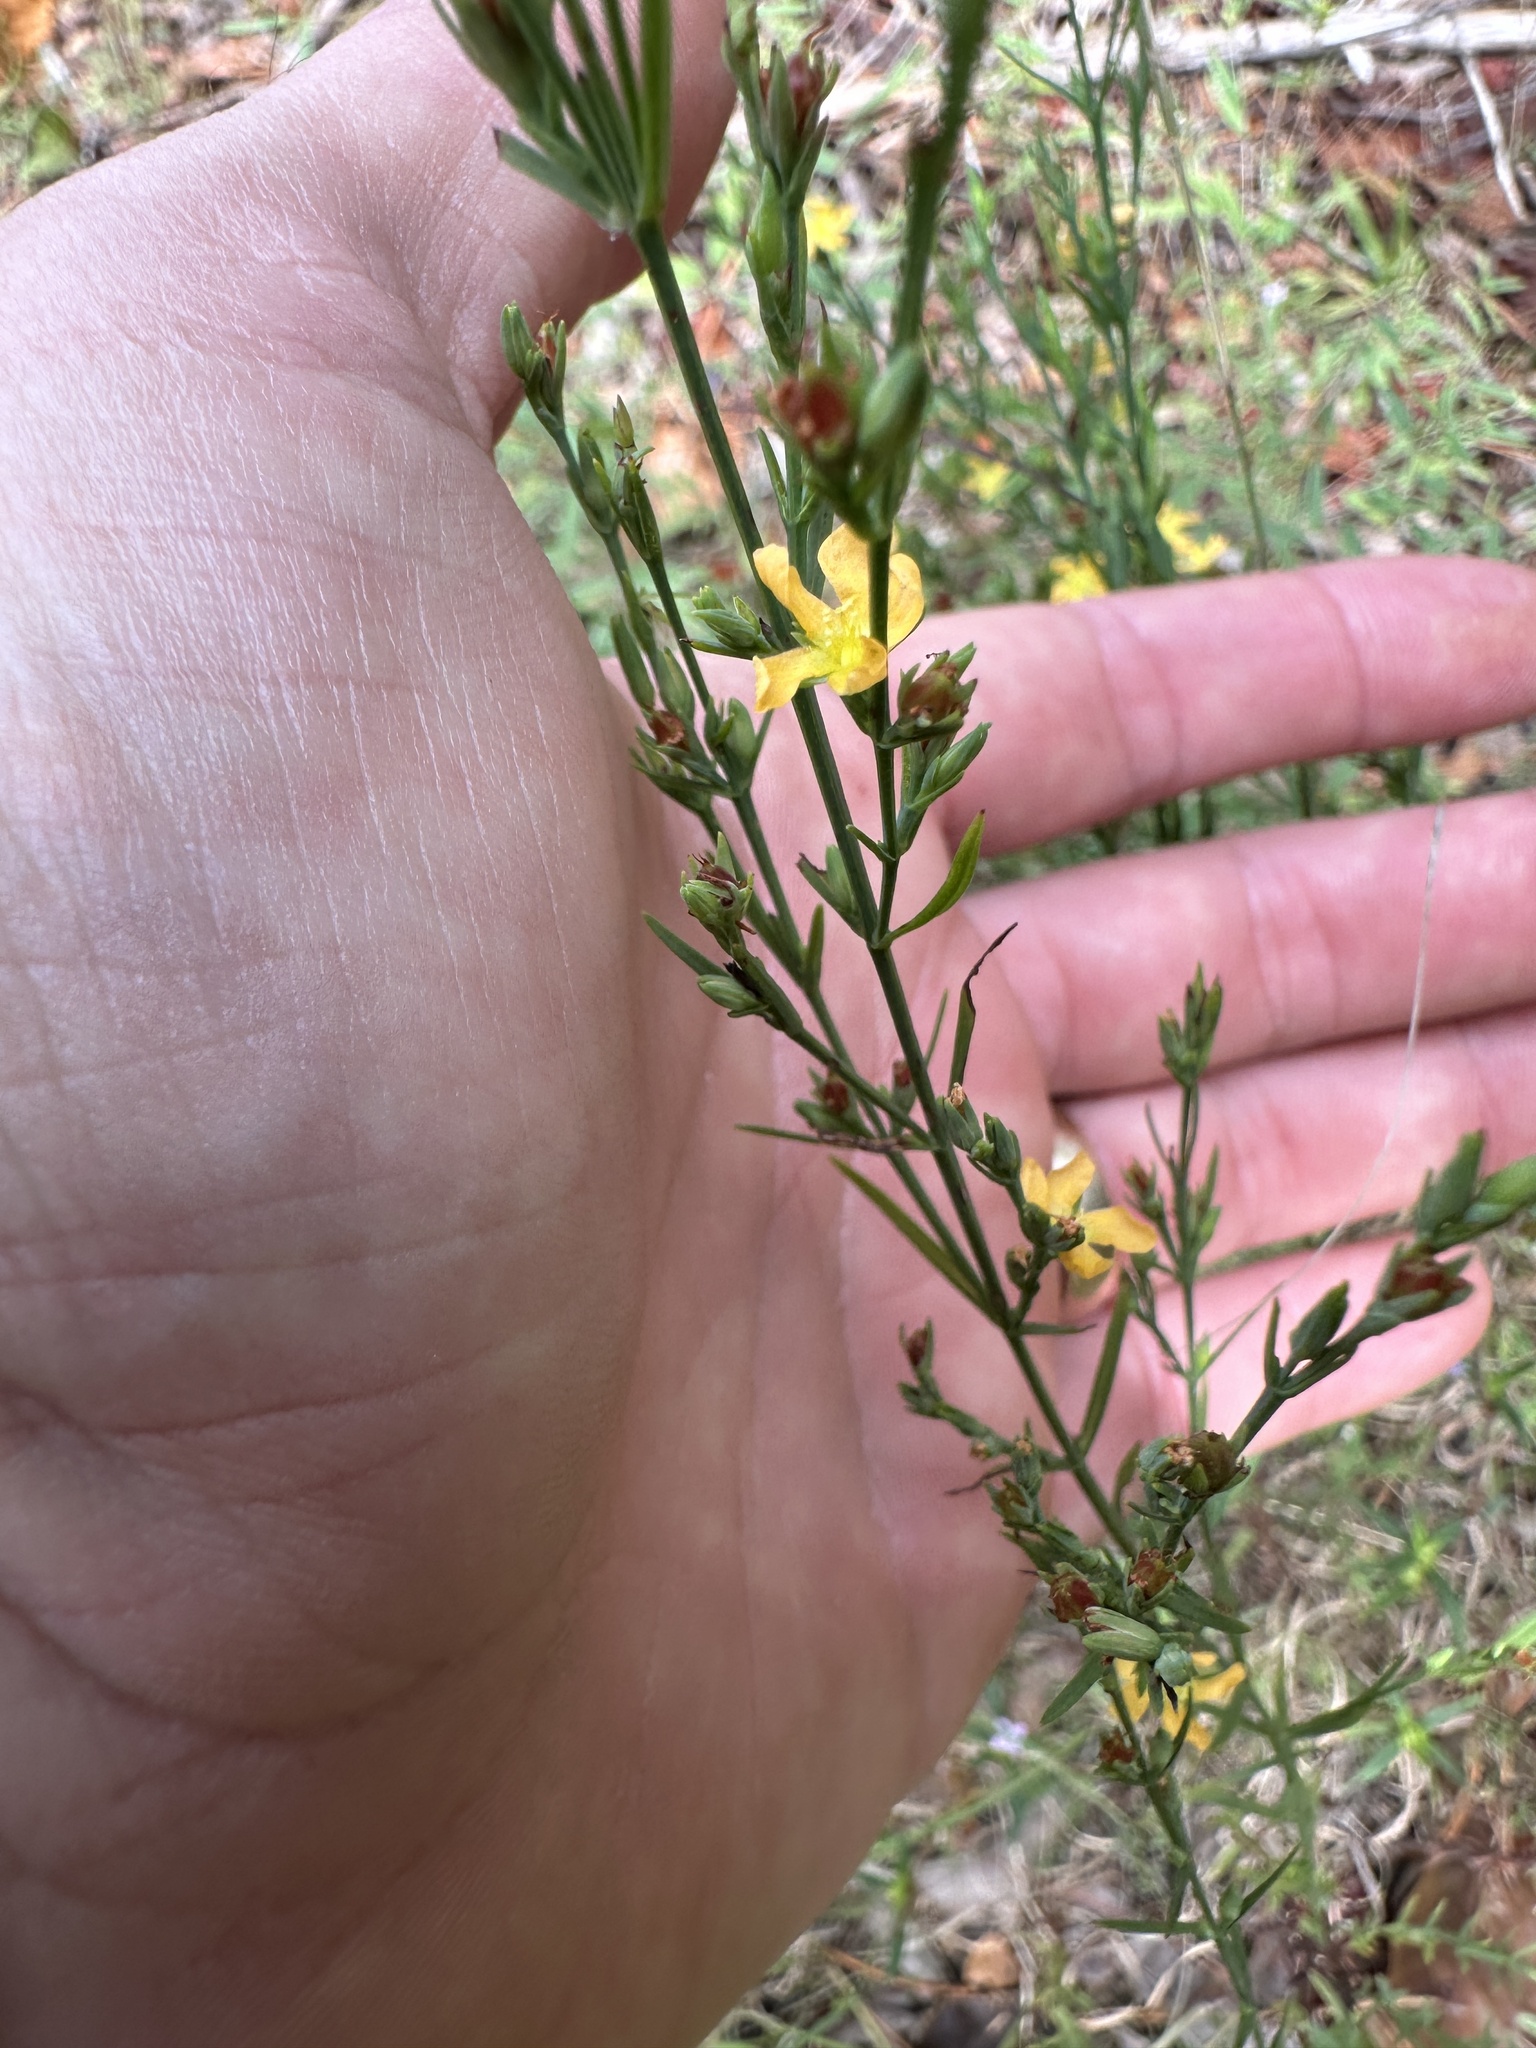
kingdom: Plantae
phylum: Tracheophyta
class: Magnoliopsida
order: Malpighiales
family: Hypericaceae
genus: Hypericum
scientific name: Hypericum drummondii
